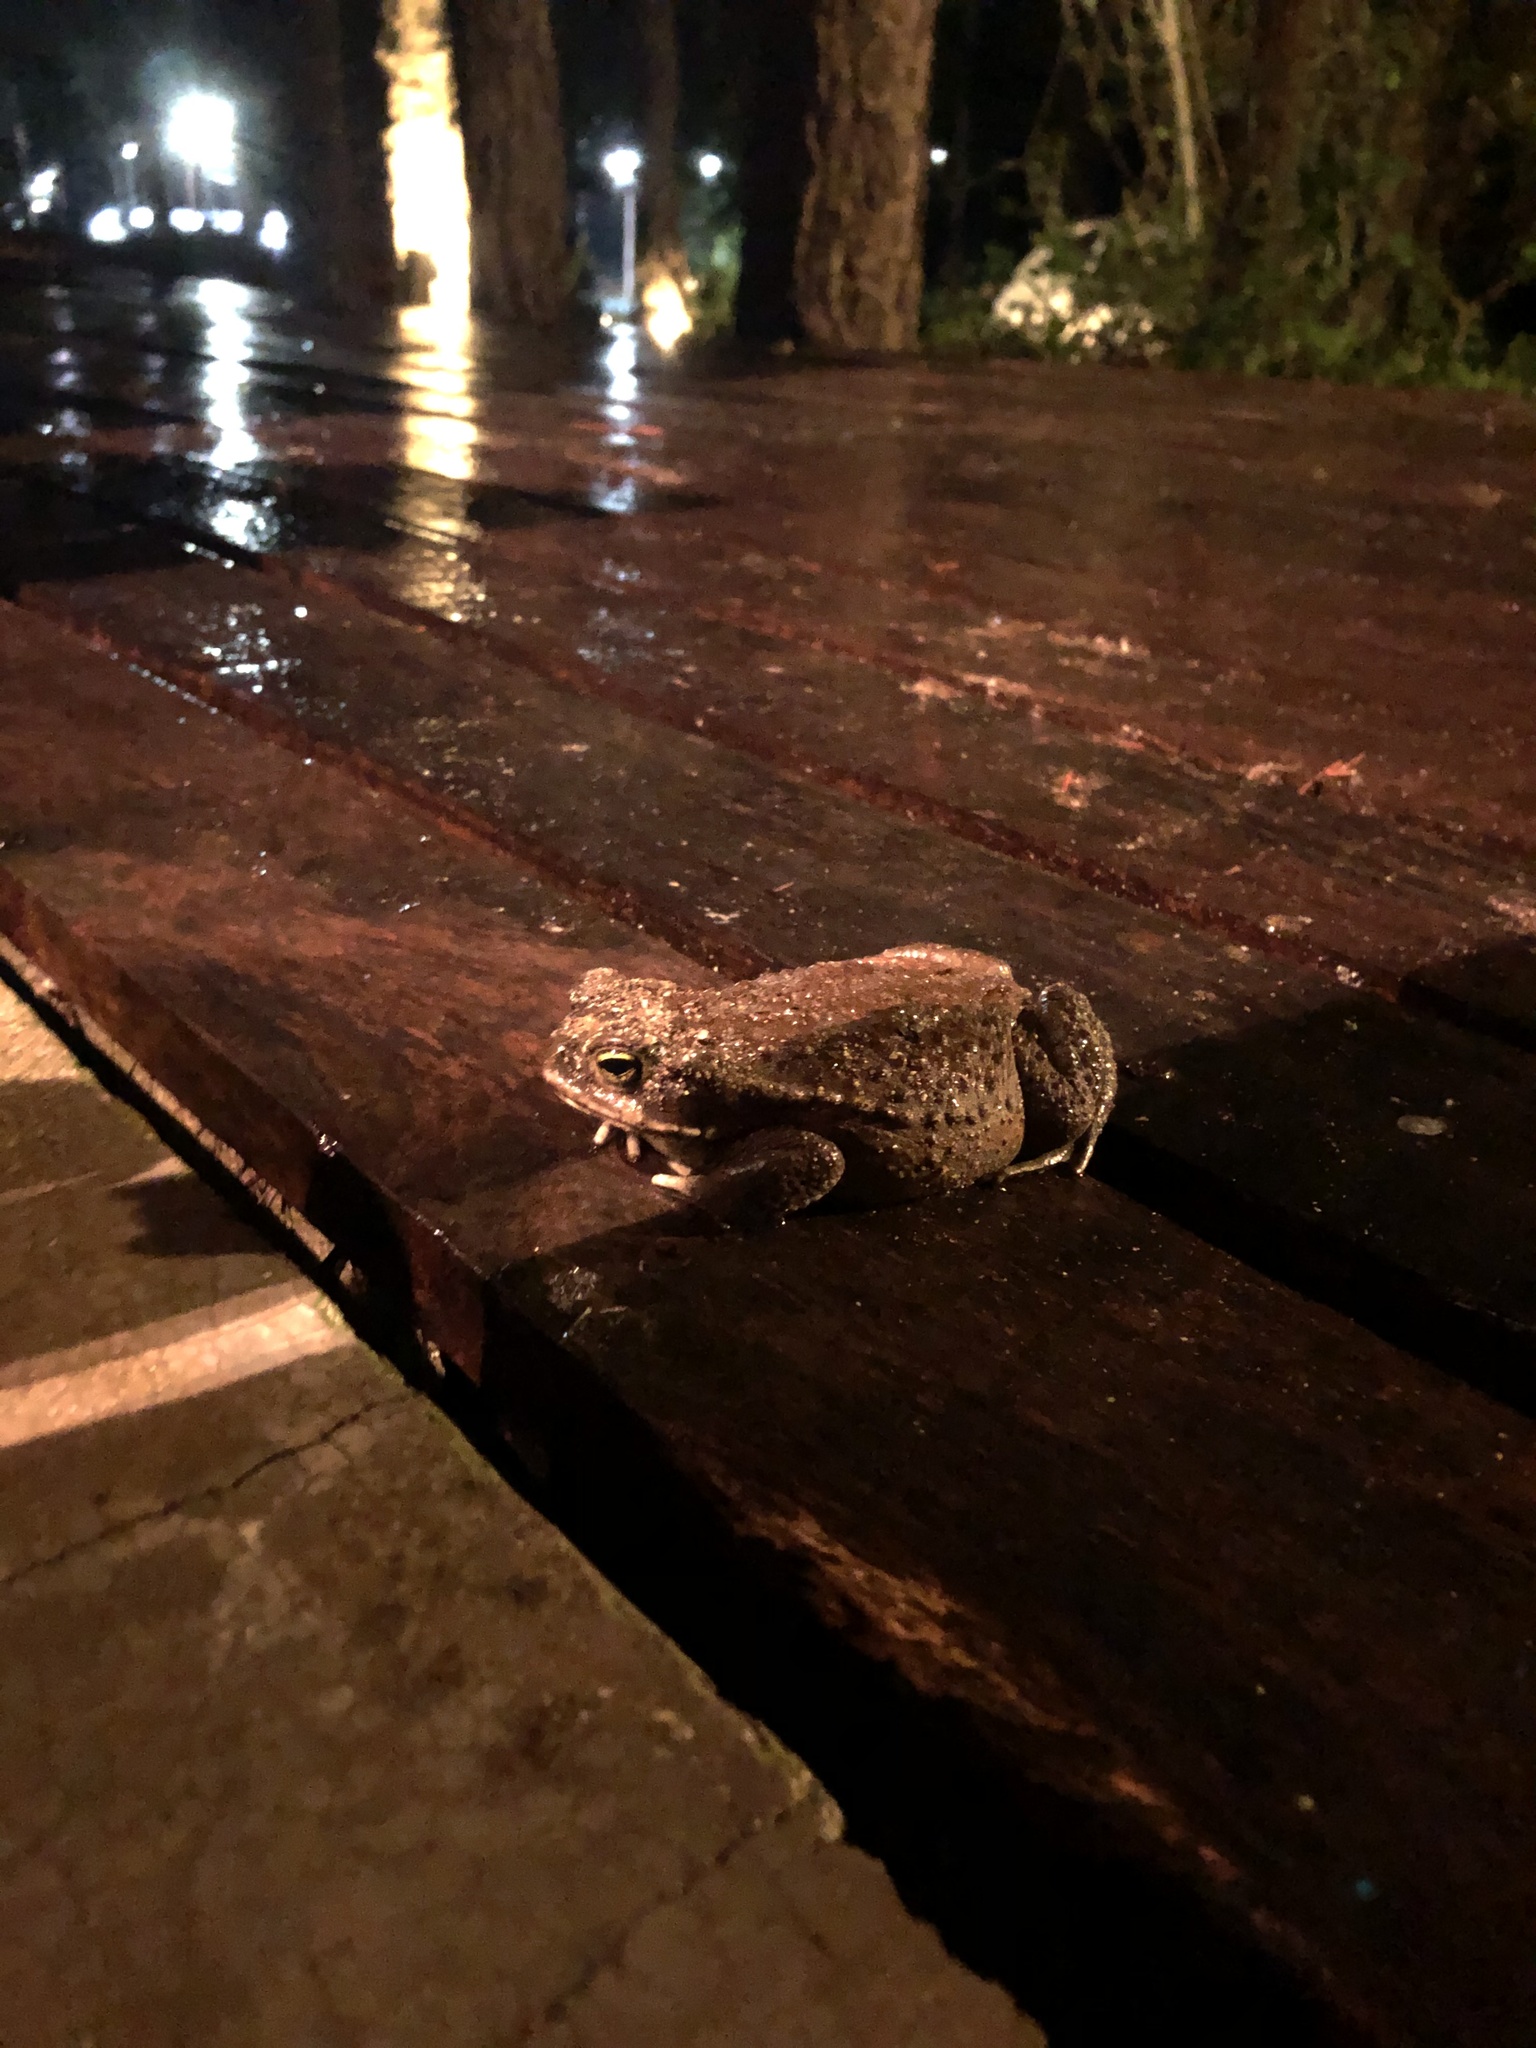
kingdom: Animalia
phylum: Chordata
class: Amphibia
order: Anura
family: Bufonidae
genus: Rhinella
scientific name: Rhinella arenarum
